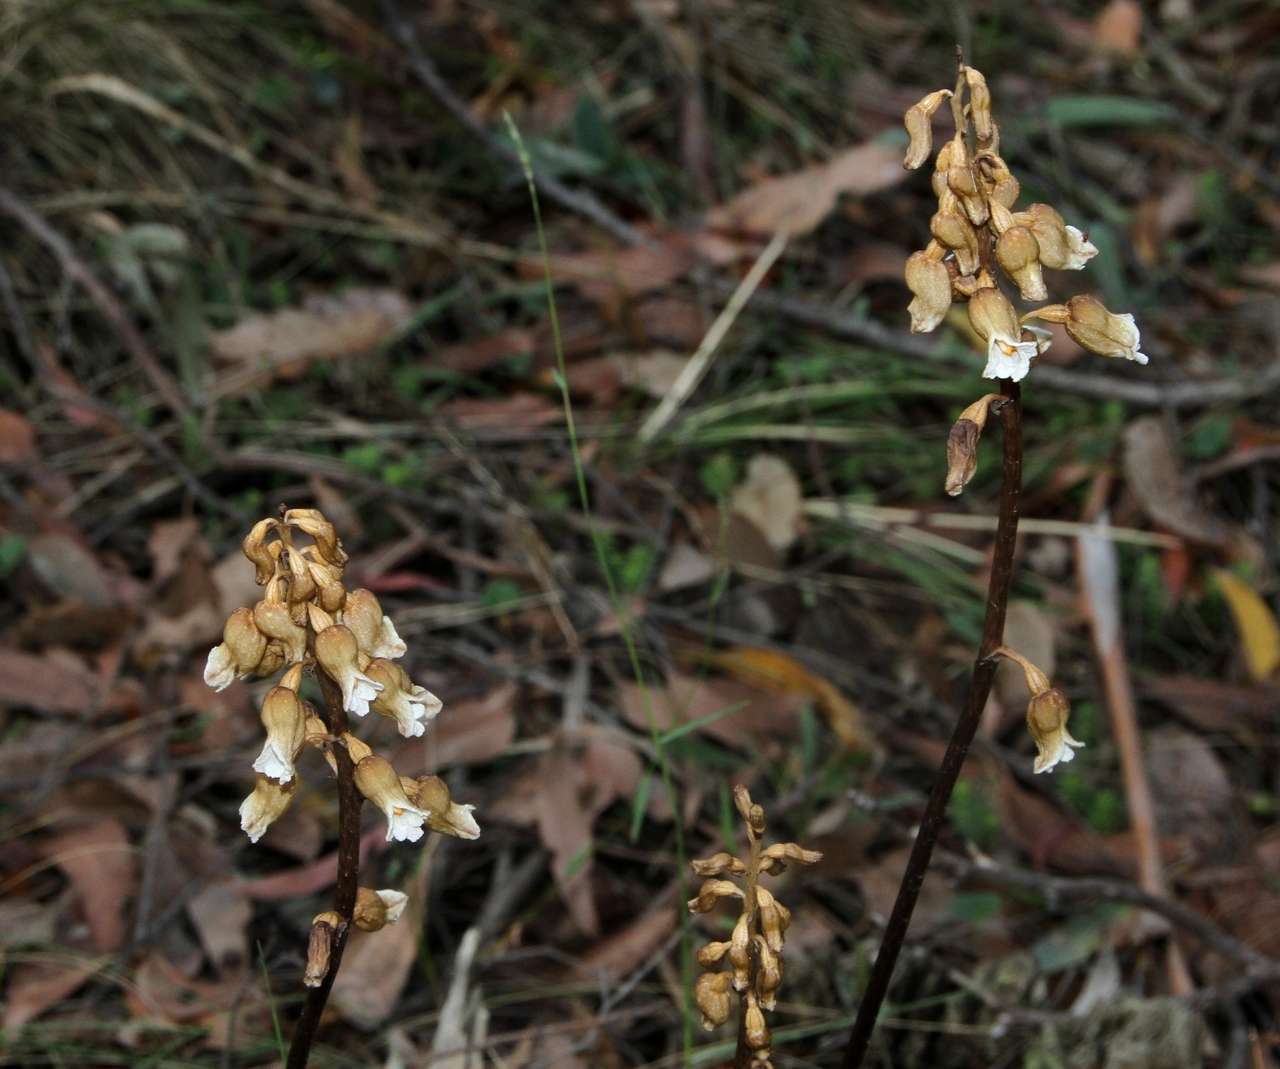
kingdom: Plantae
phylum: Tracheophyta
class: Liliopsida
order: Asparagales
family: Orchidaceae
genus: Gastrodia
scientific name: Gastrodia procera
